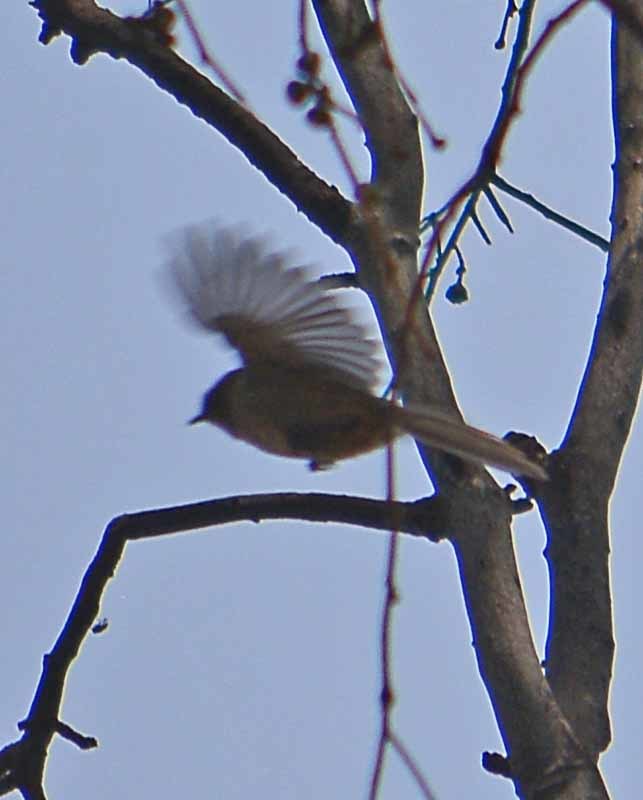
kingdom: Animalia
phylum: Chordata
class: Aves
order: Passeriformes
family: Aegithalidae
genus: Psaltriparus
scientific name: Psaltriparus minimus
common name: American bushtit
